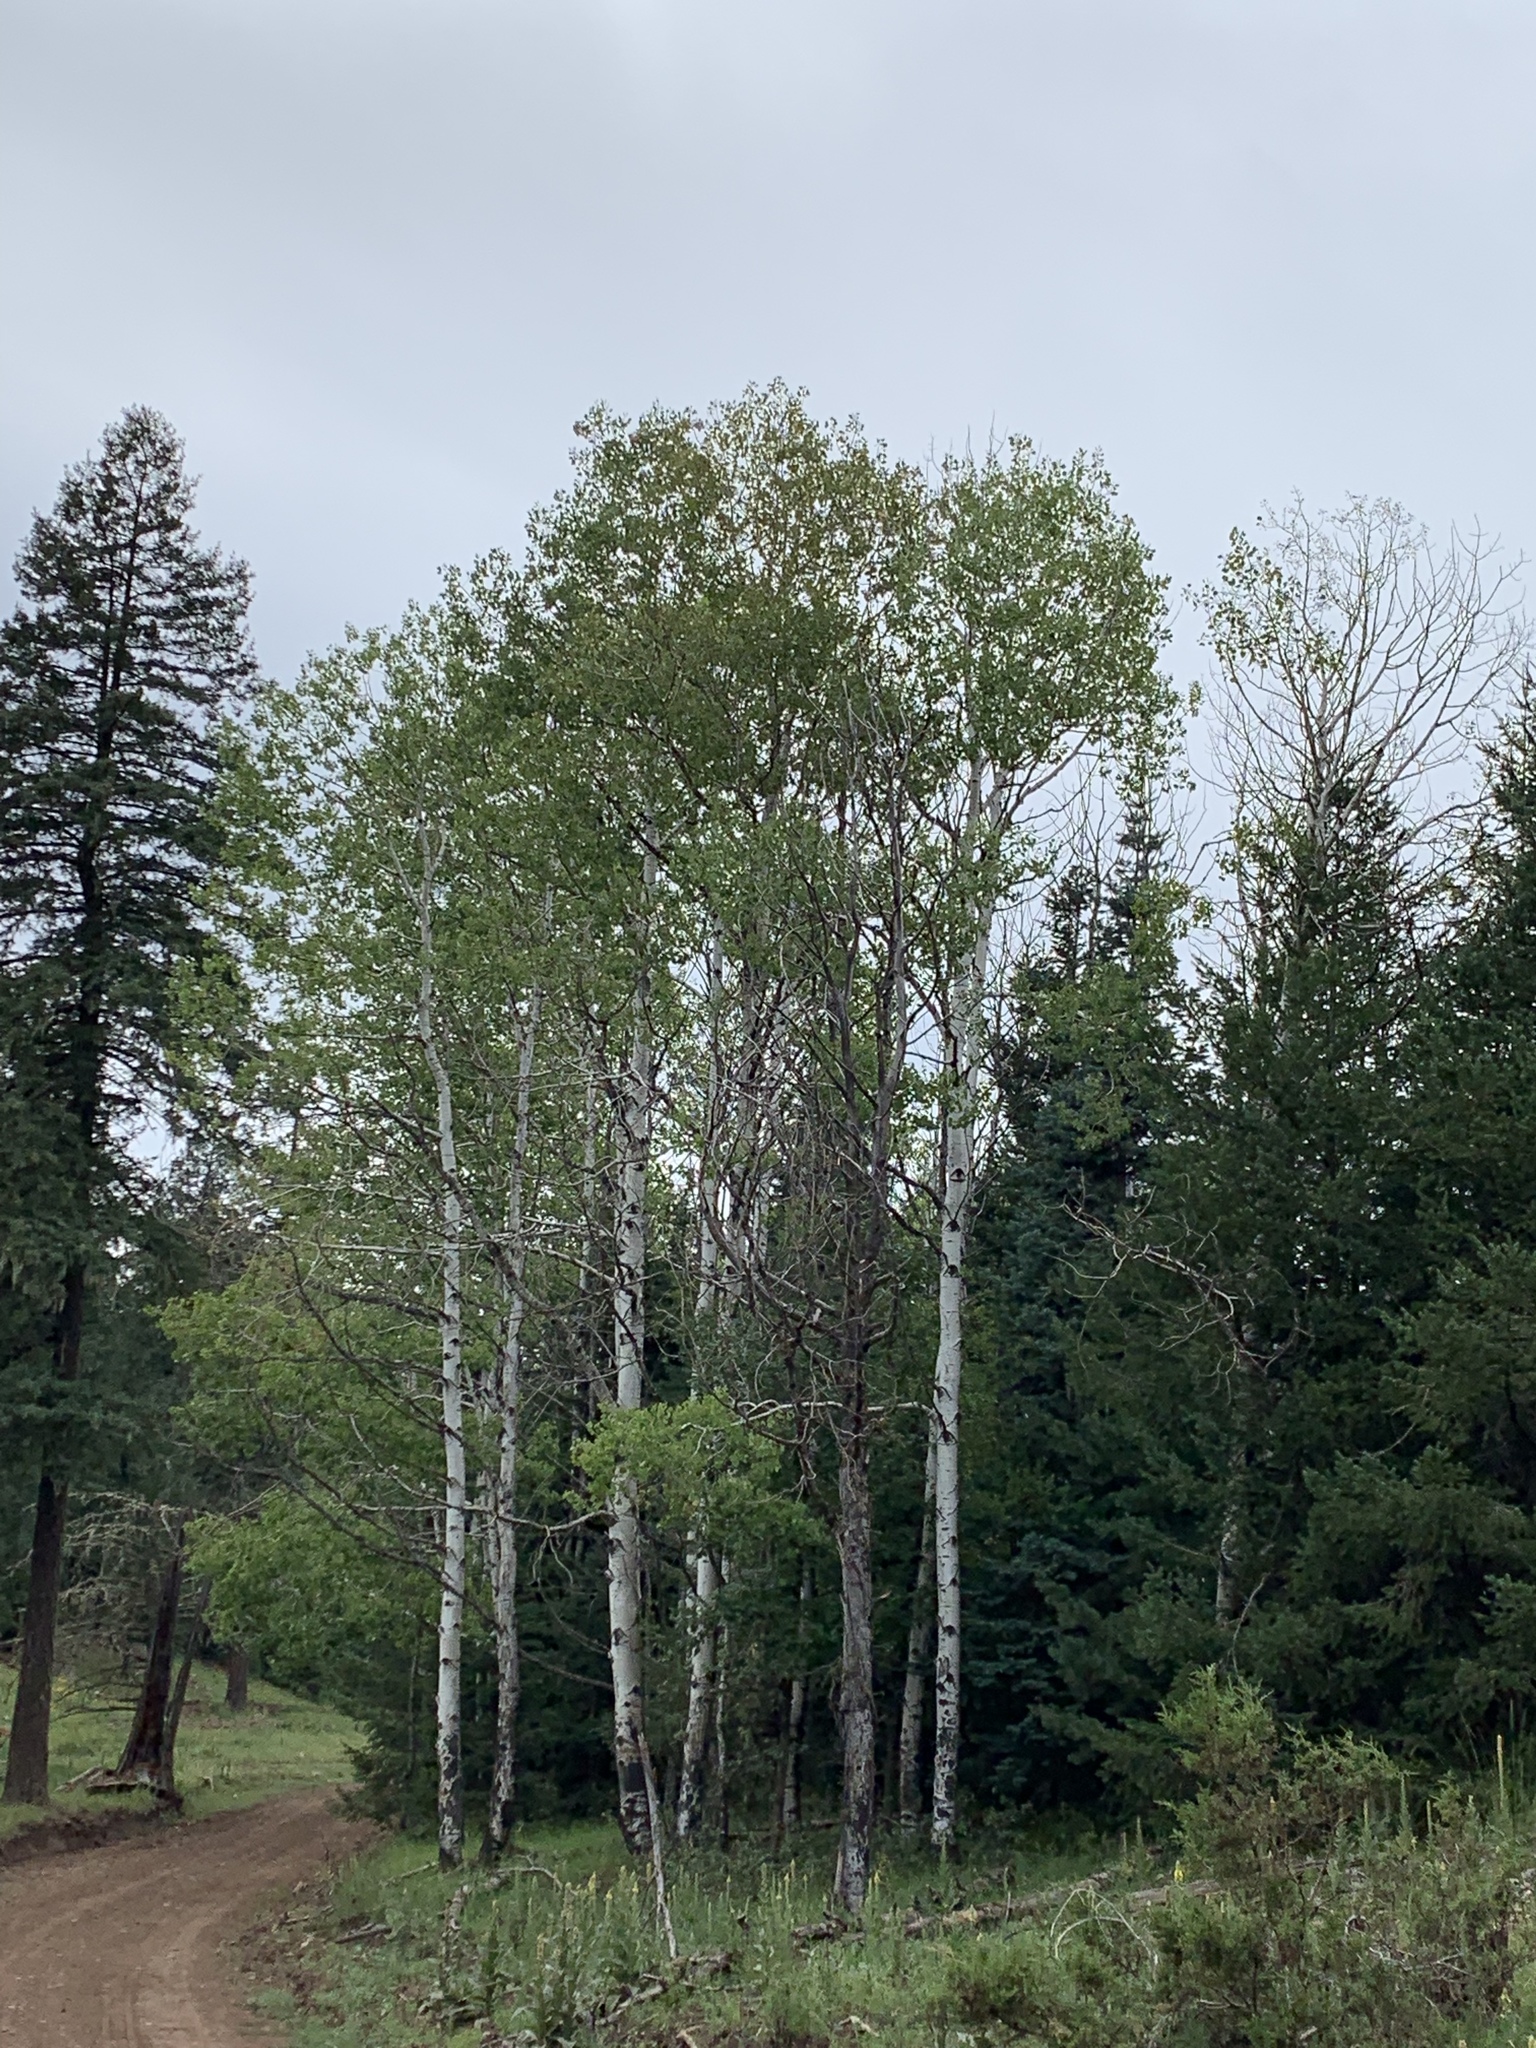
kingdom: Plantae
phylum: Tracheophyta
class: Magnoliopsida
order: Malpighiales
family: Salicaceae
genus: Populus
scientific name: Populus tremuloides
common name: Quaking aspen
